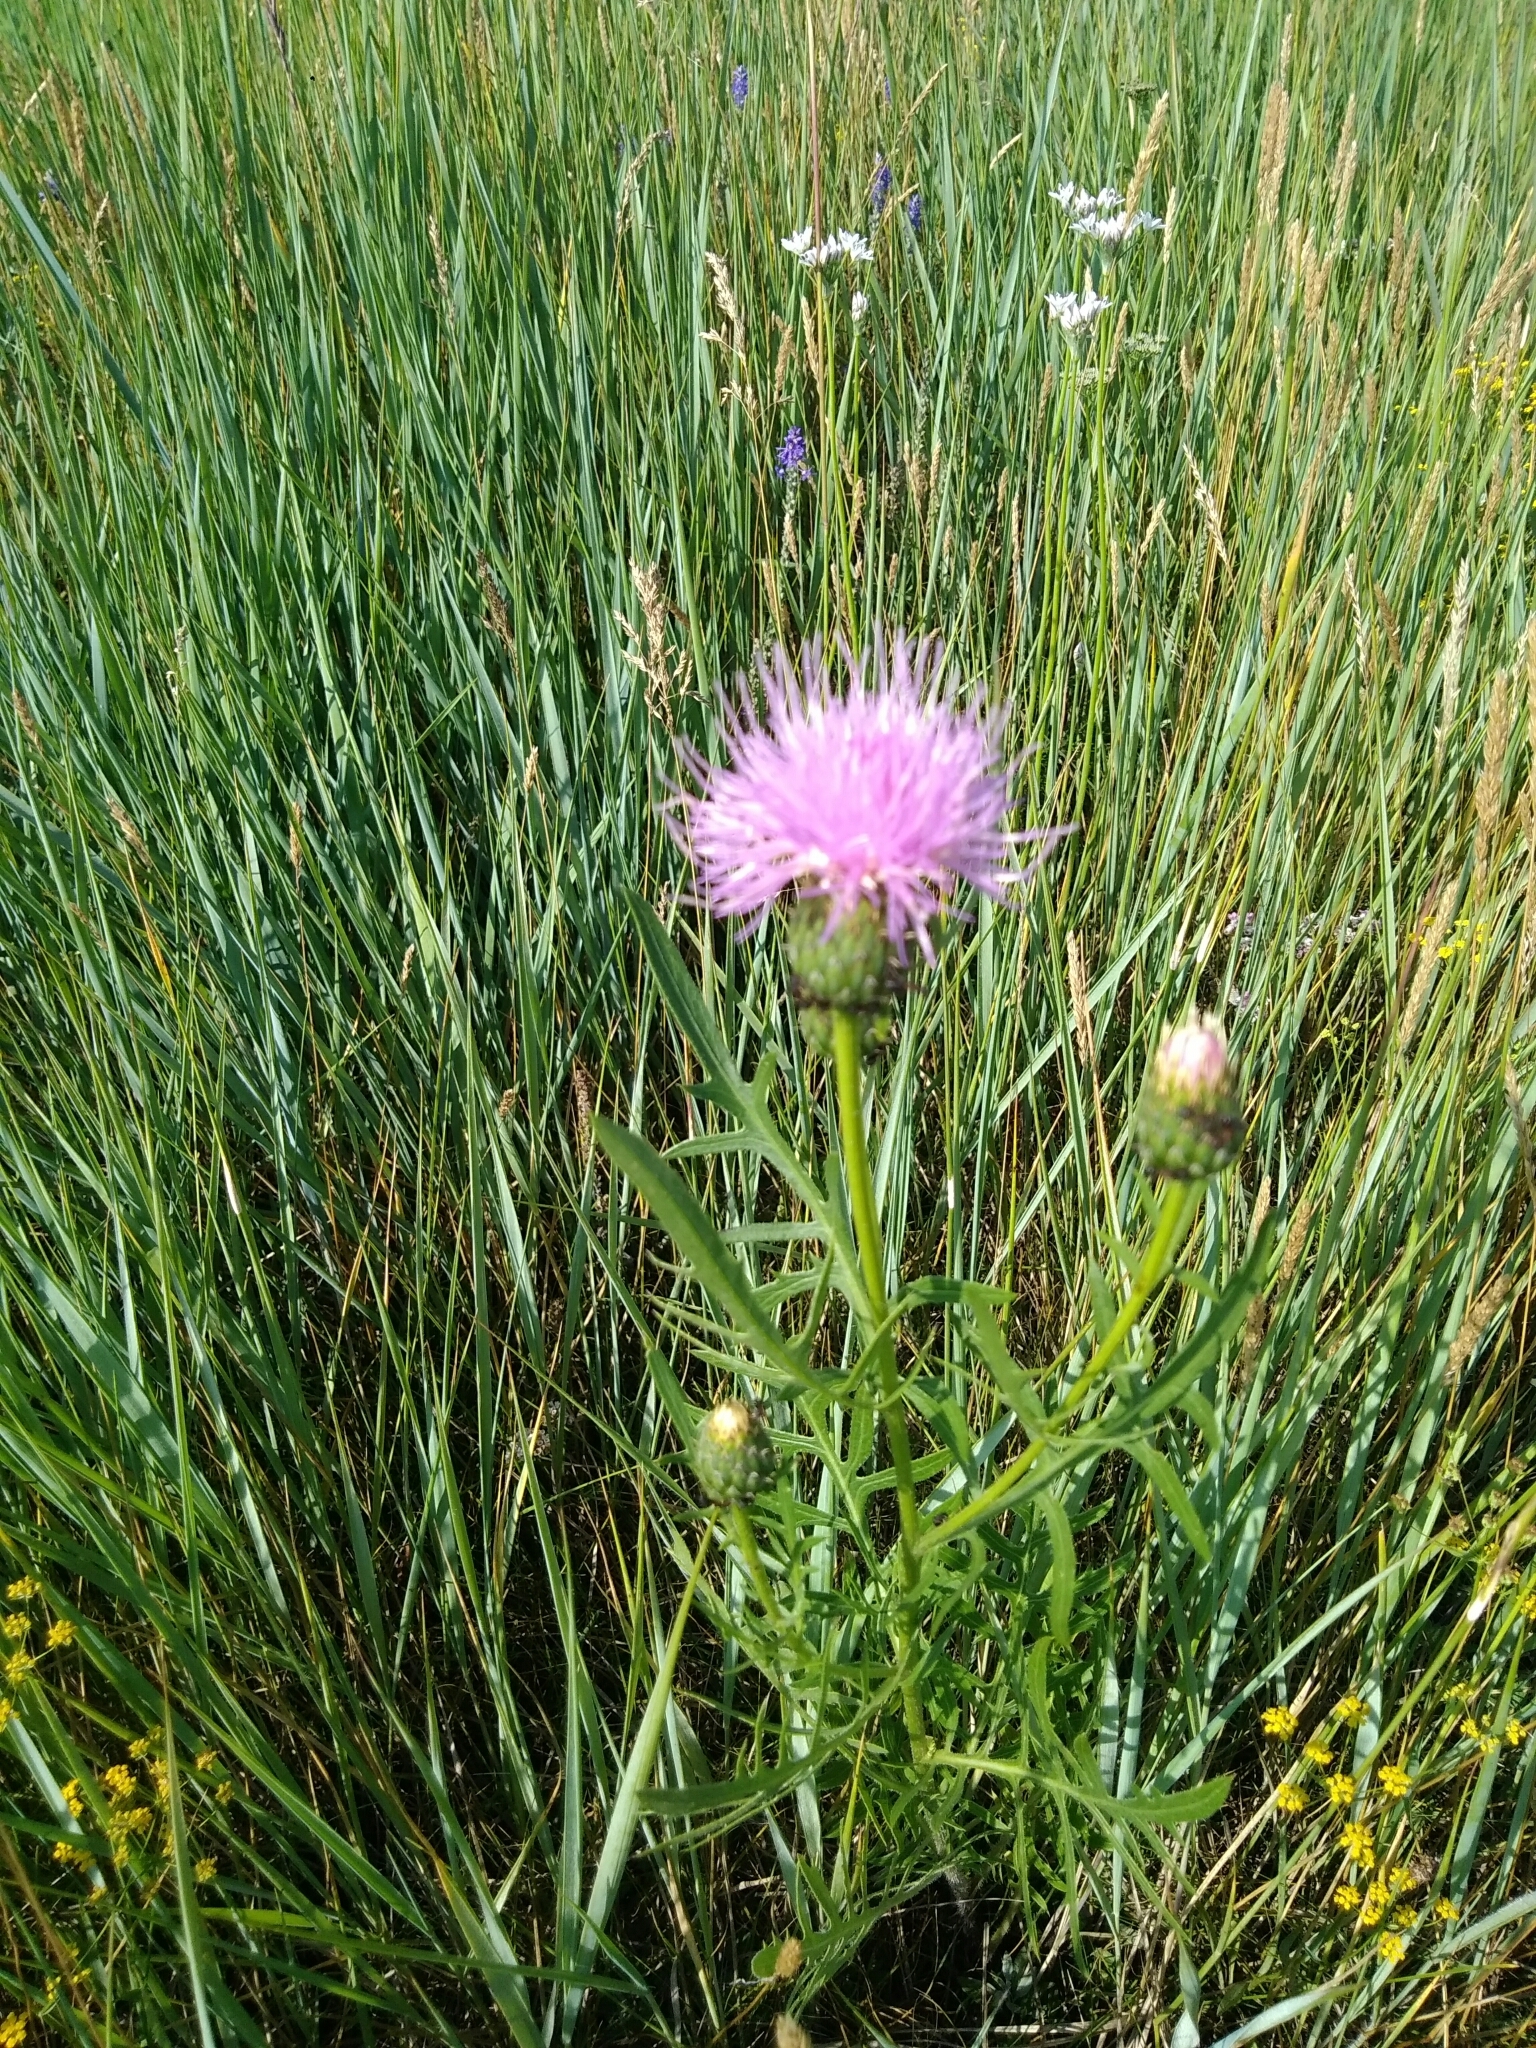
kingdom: Plantae
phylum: Tracheophyta
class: Magnoliopsida
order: Asterales
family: Asteraceae
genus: Klasea
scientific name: Klasea centauroides
